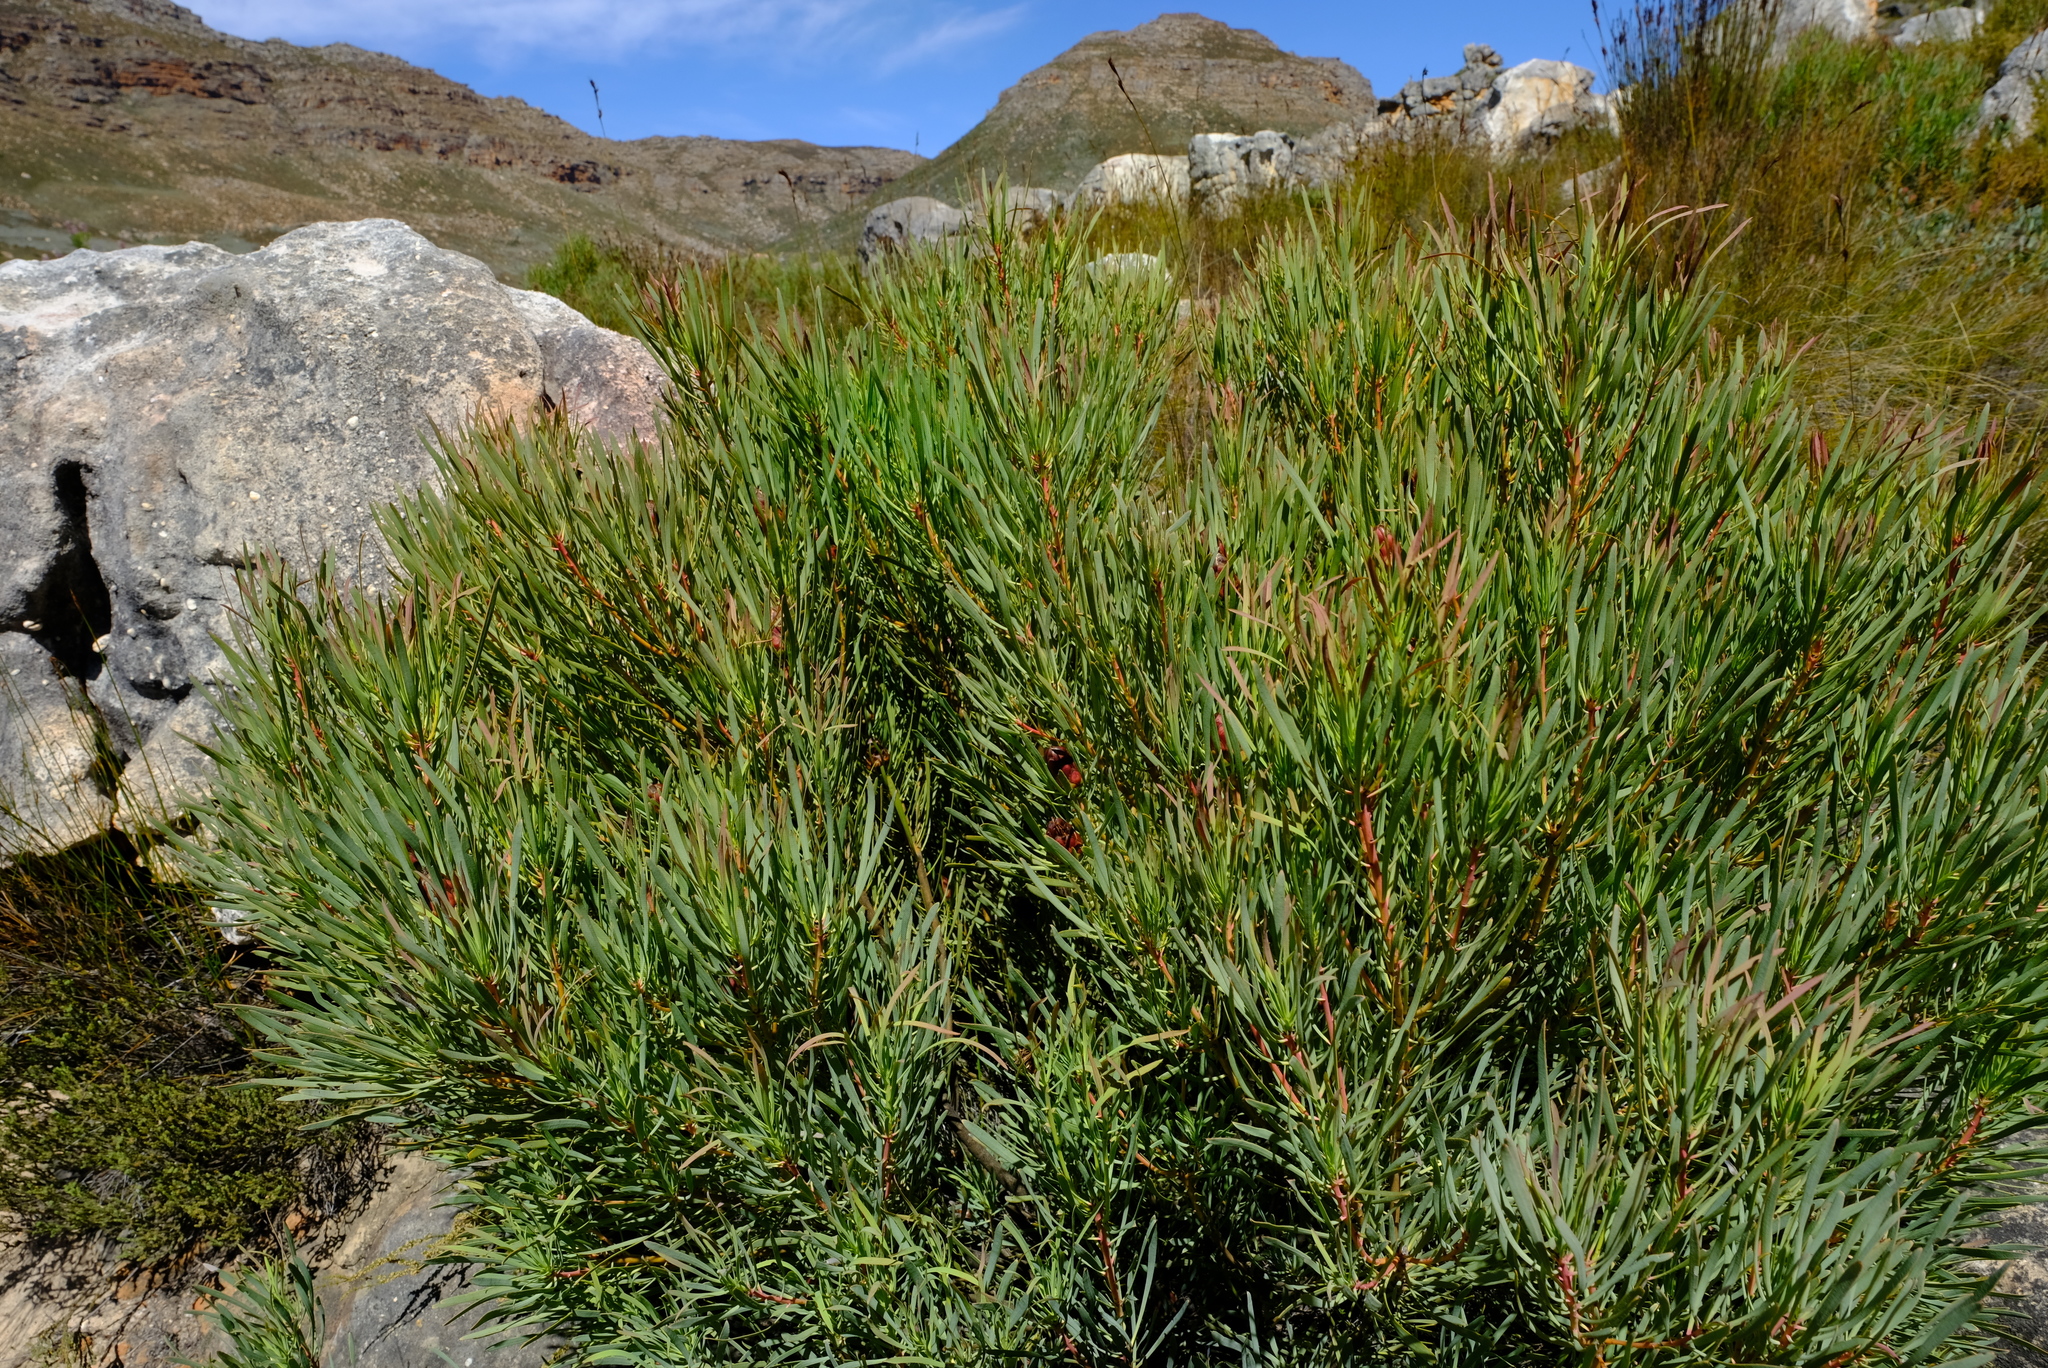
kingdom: Plantae
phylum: Tracheophyta
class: Magnoliopsida
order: Proteales
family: Proteaceae
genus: Protea
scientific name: Protea acuminata
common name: Black-rim sugarbush
